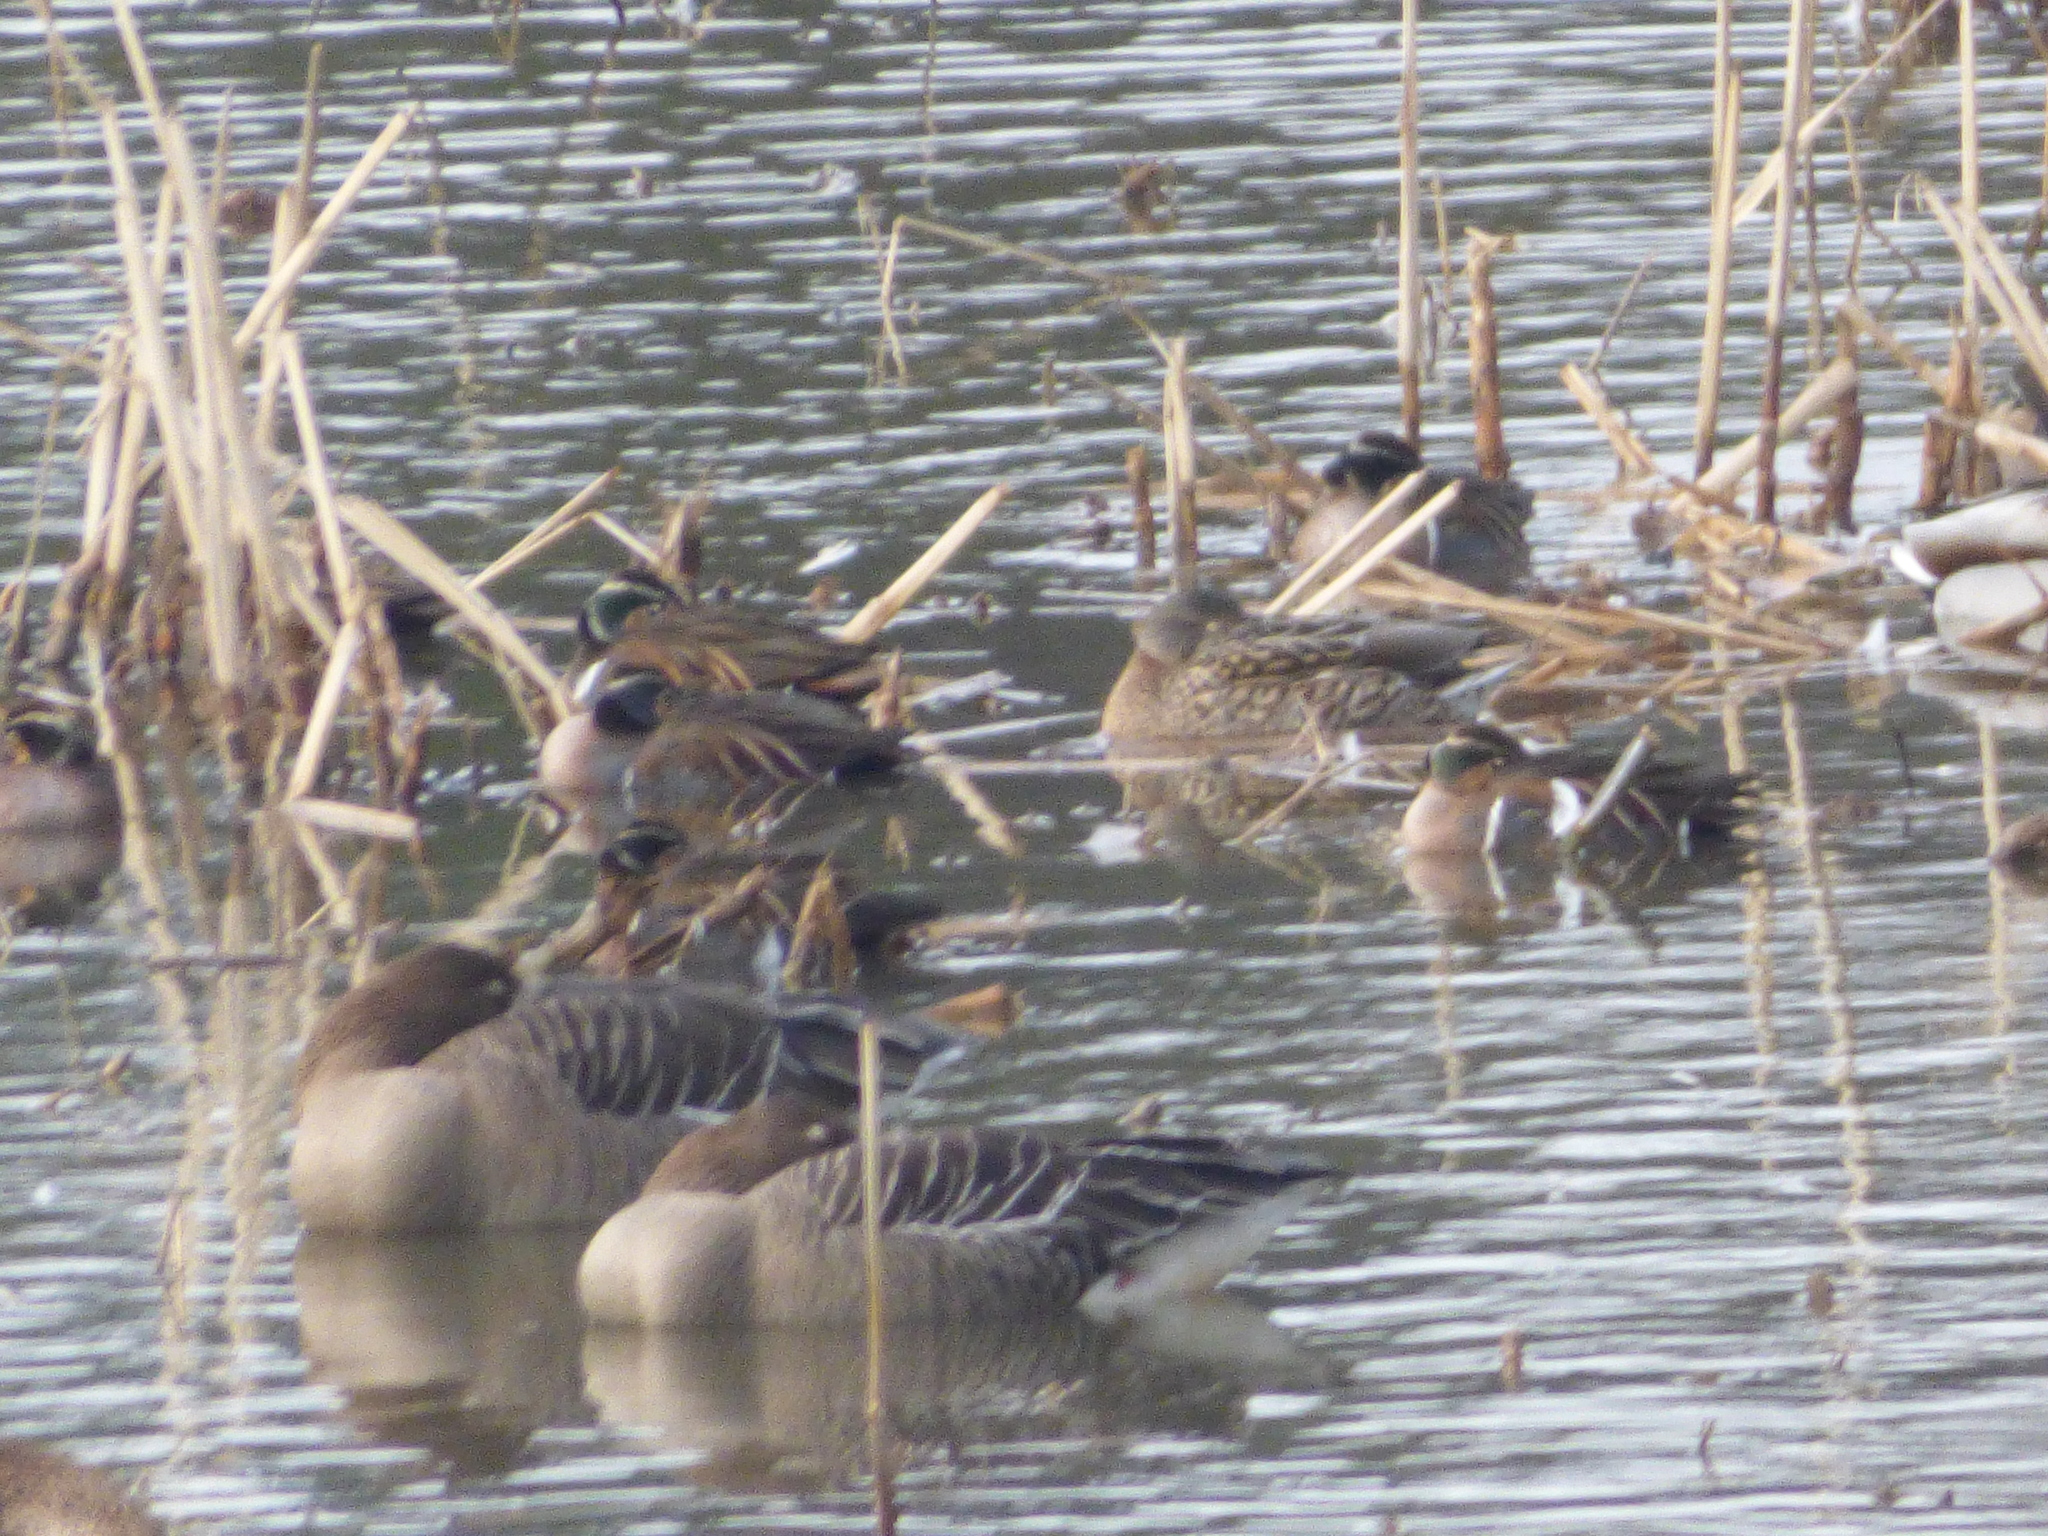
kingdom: Animalia
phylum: Chordata
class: Aves
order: Anseriformes
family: Anatidae
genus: Sibirionetta
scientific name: Sibirionetta formosa
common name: Baikal teal
